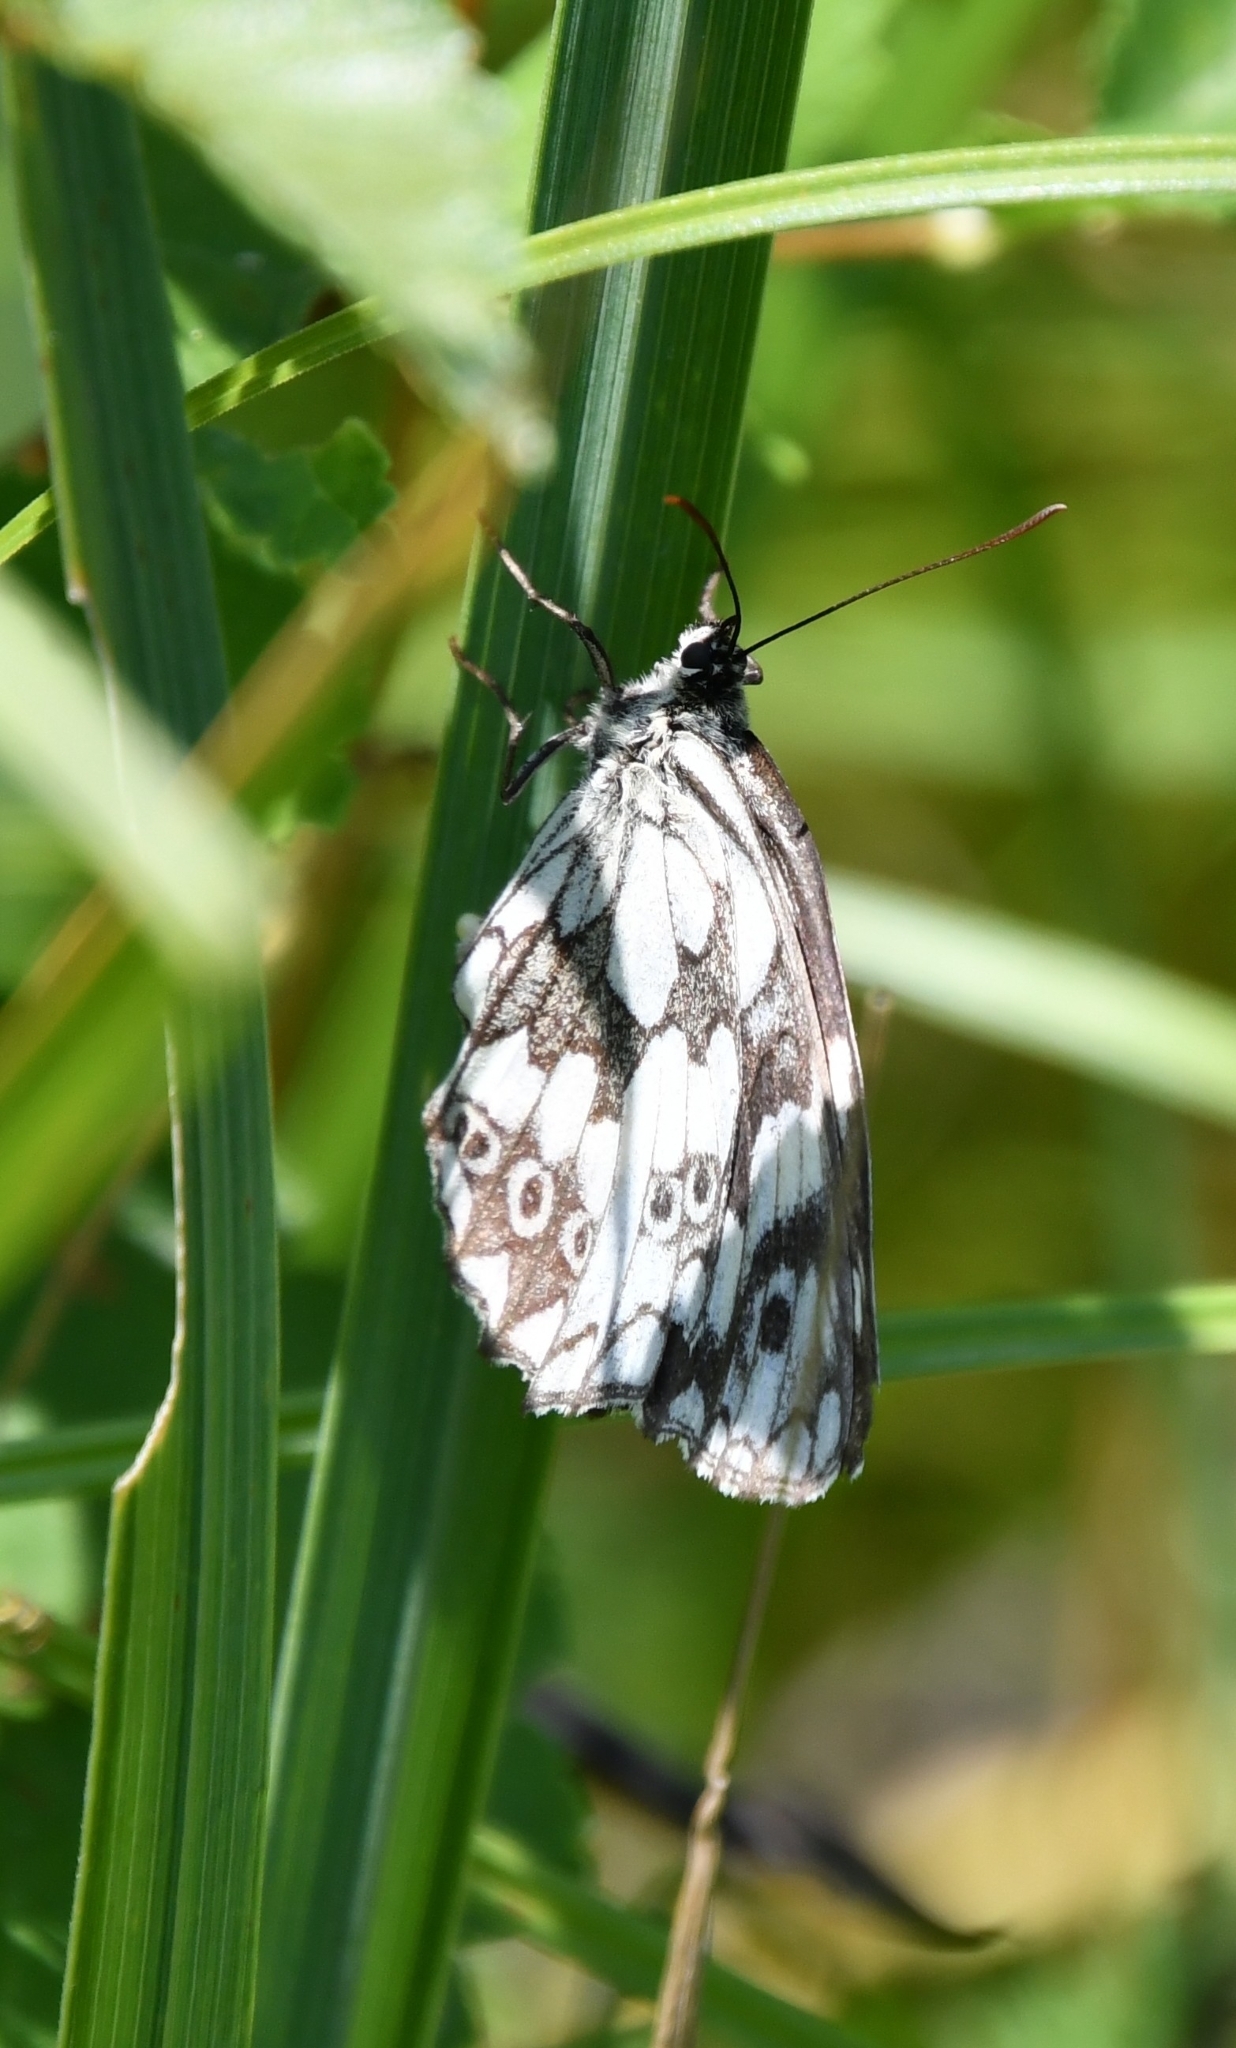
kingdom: Animalia
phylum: Arthropoda
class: Insecta
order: Lepidoptera
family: Nymphalidae
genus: Melanargia
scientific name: Melanargia galathea
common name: Marbled white
